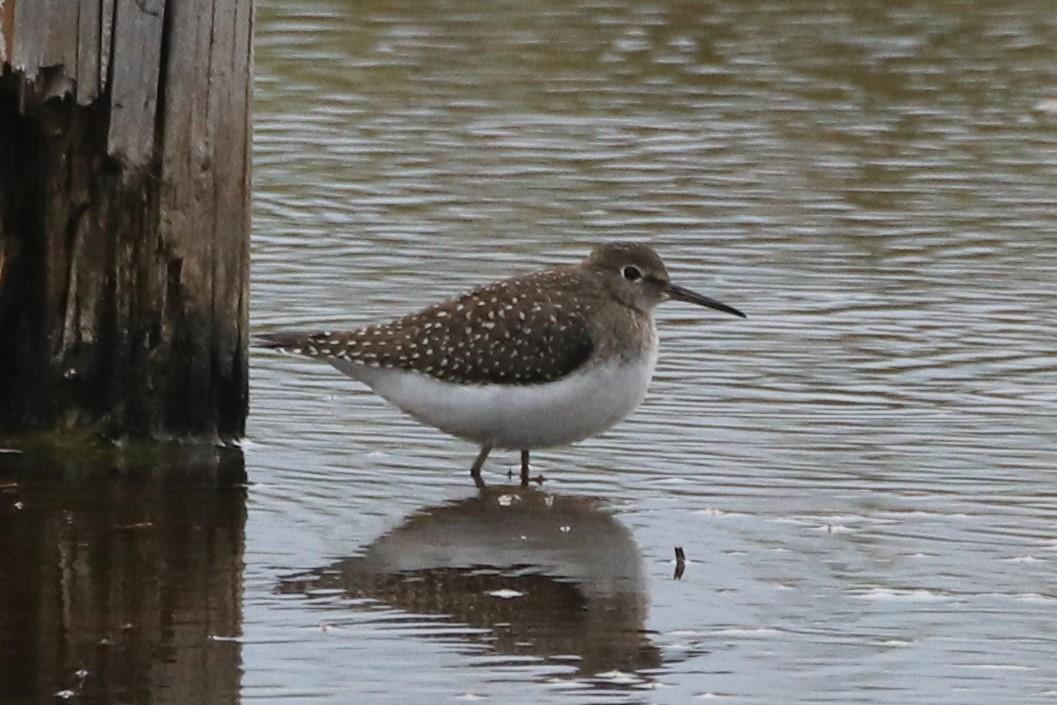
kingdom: Animalia
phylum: Chordata
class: Aves
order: Charadriiformes
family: Scolopacidae
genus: Tringa
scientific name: Tringa solitaria
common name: Solitary sandpiper
